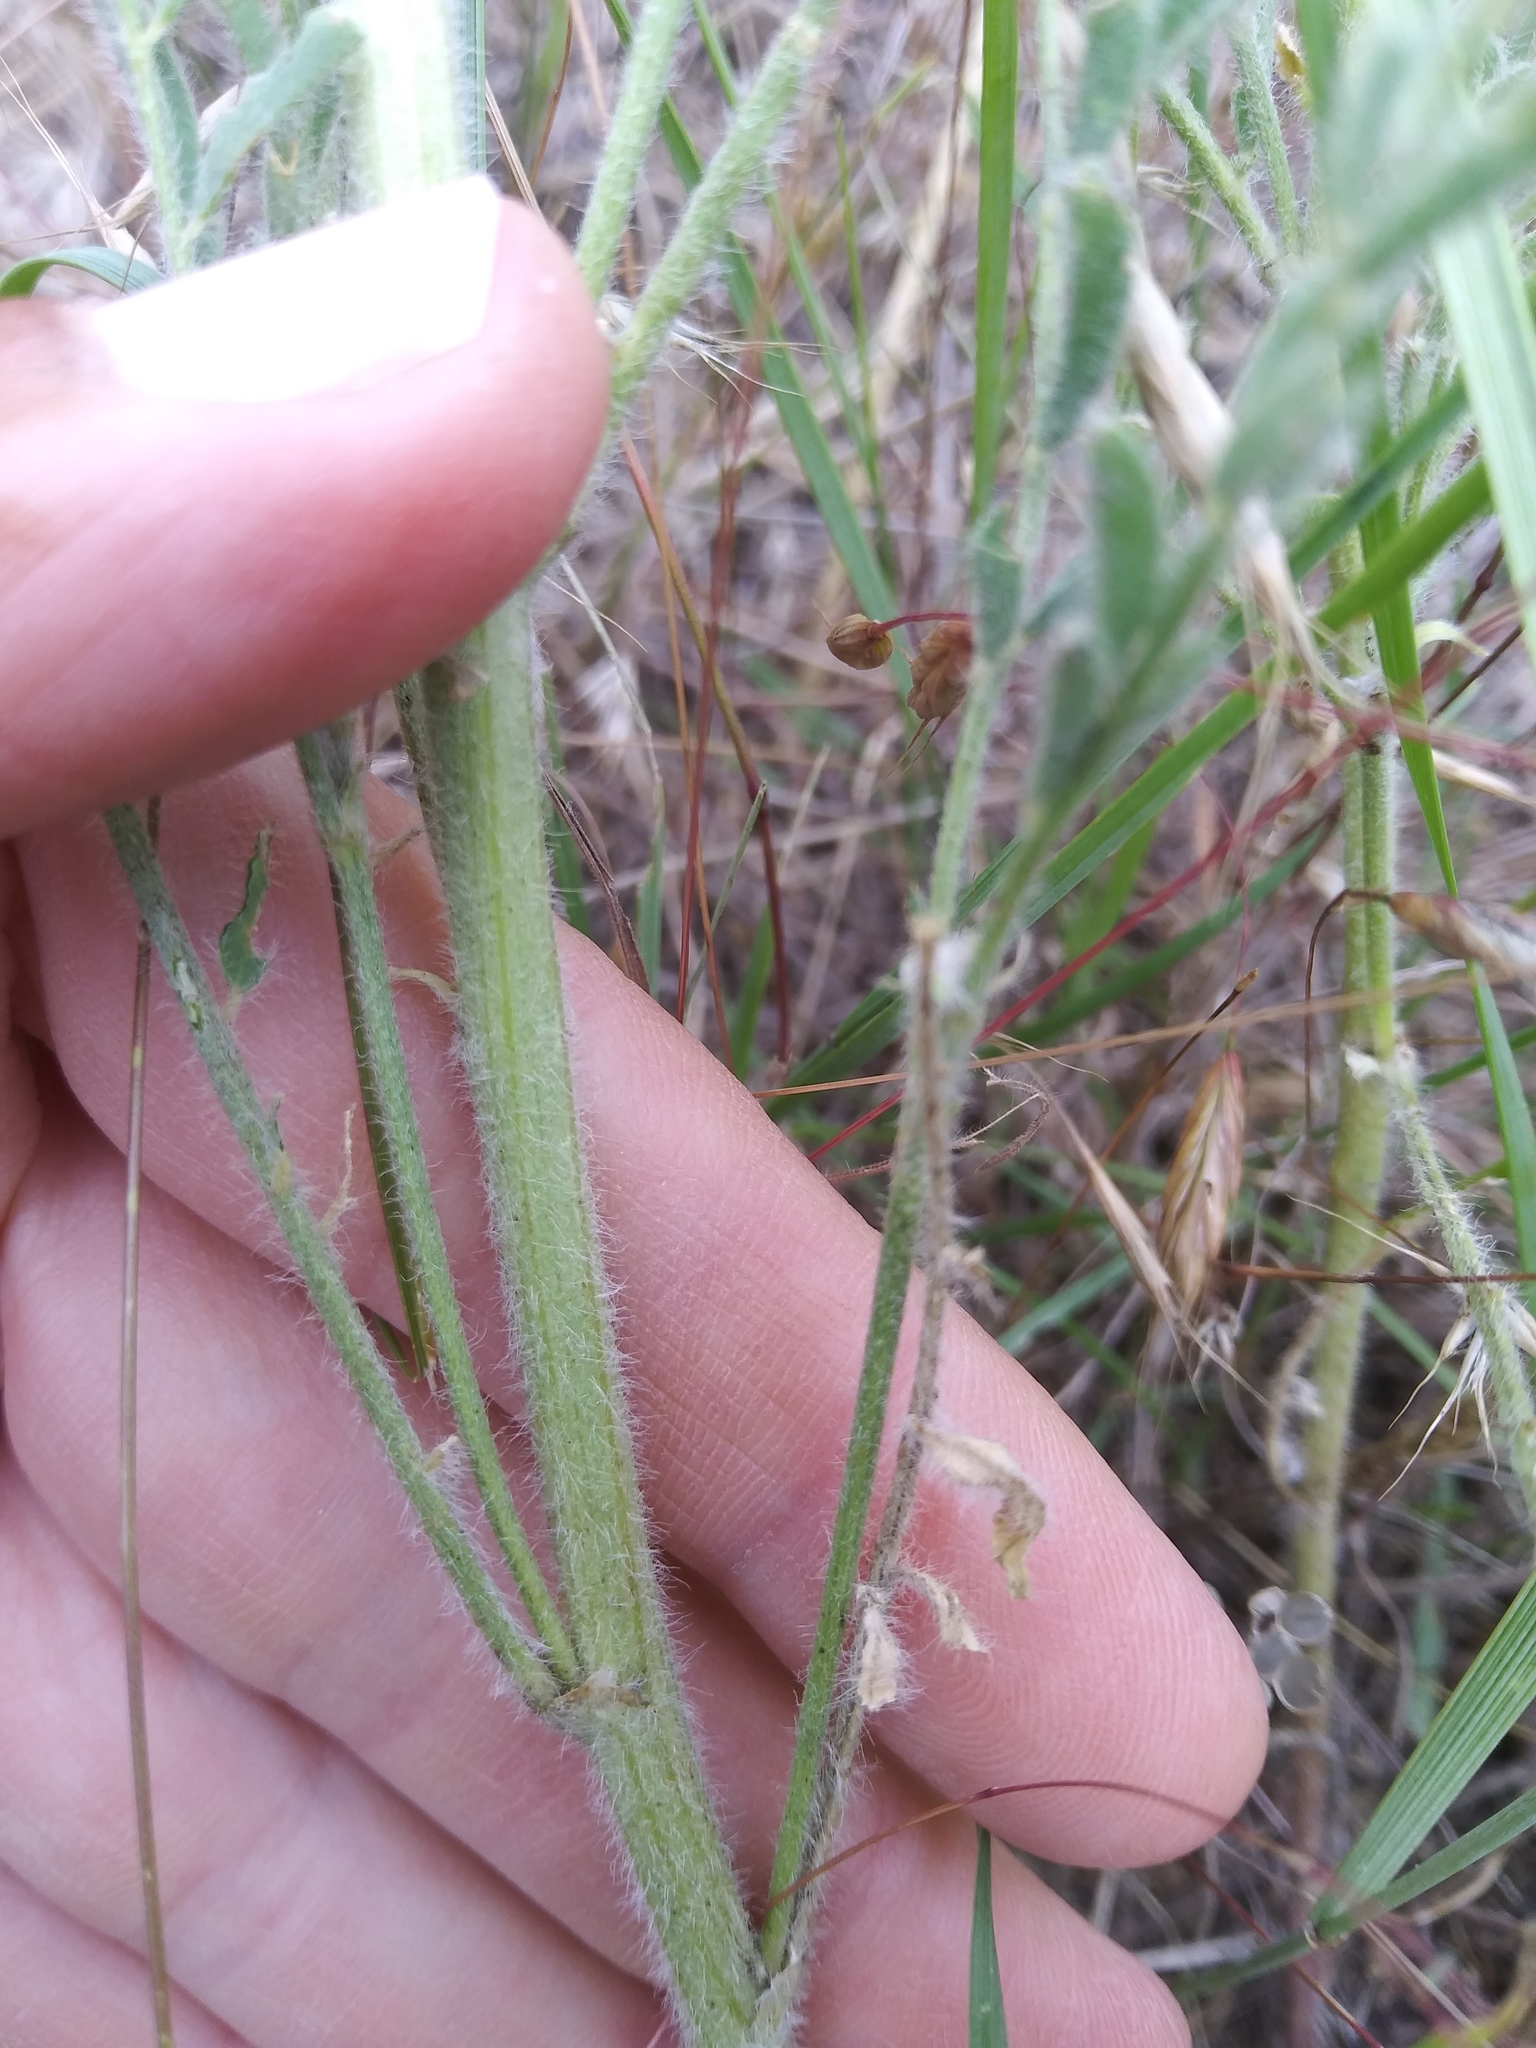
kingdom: Plantae
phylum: Tracheophyta
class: Magnoliopsida
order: Fabales
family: Fabaceae
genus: Astragalus
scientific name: Astragalus drummondii
